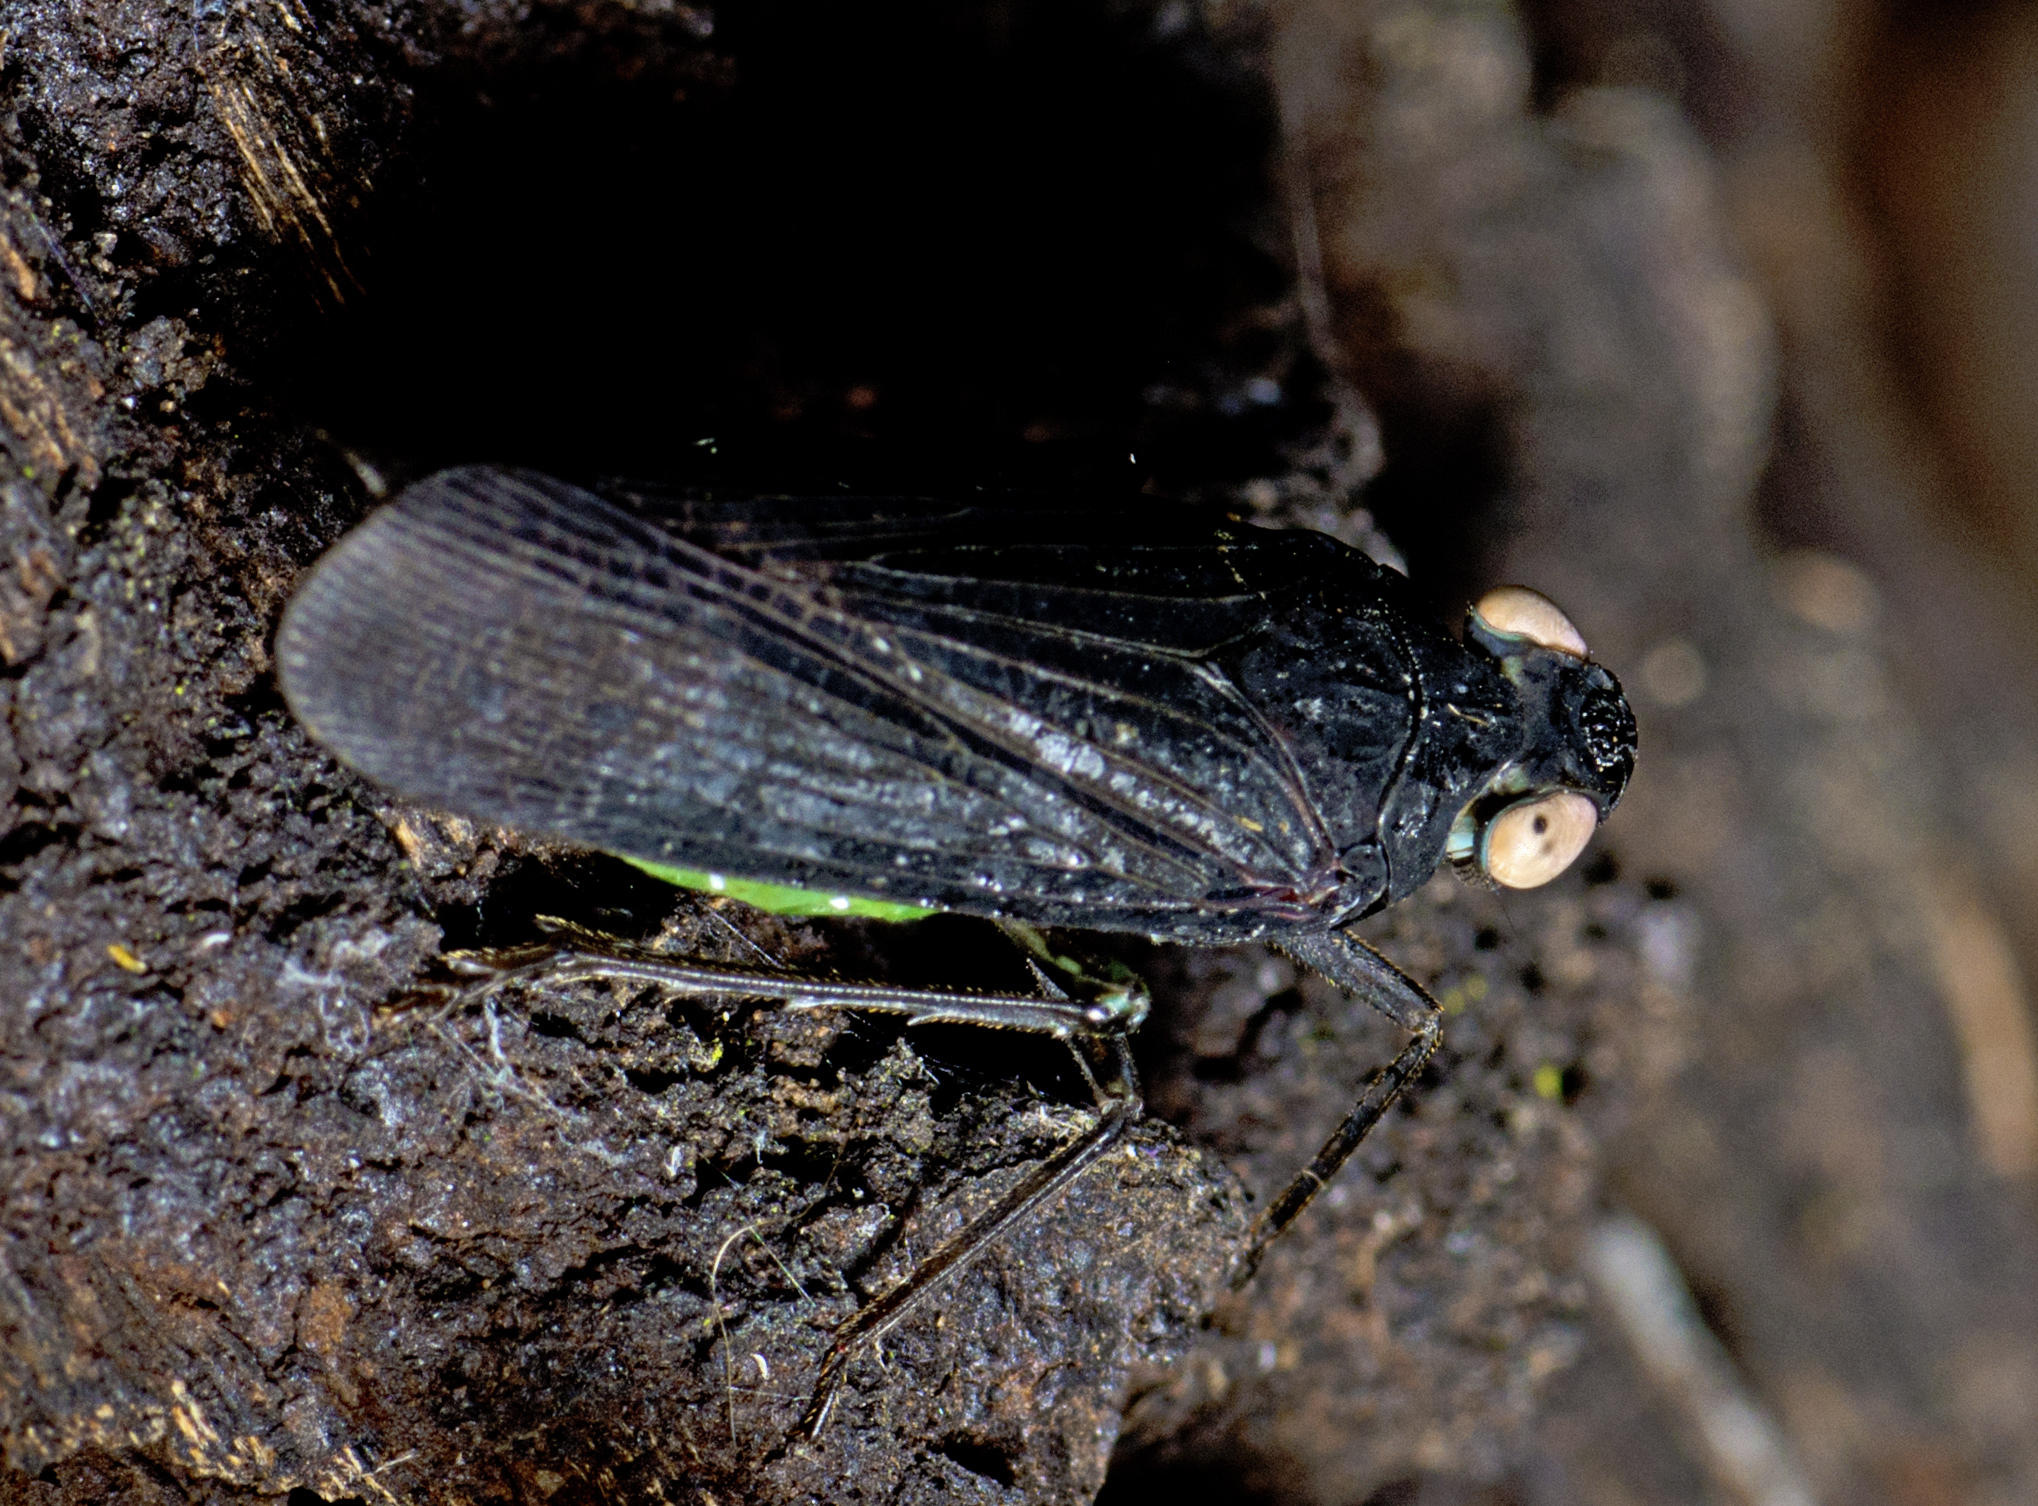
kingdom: Animalia
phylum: Arthropoda
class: Insecta
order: Hemiptera
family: Fulgoridae
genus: Desudaba
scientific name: Desudaba psittacus
